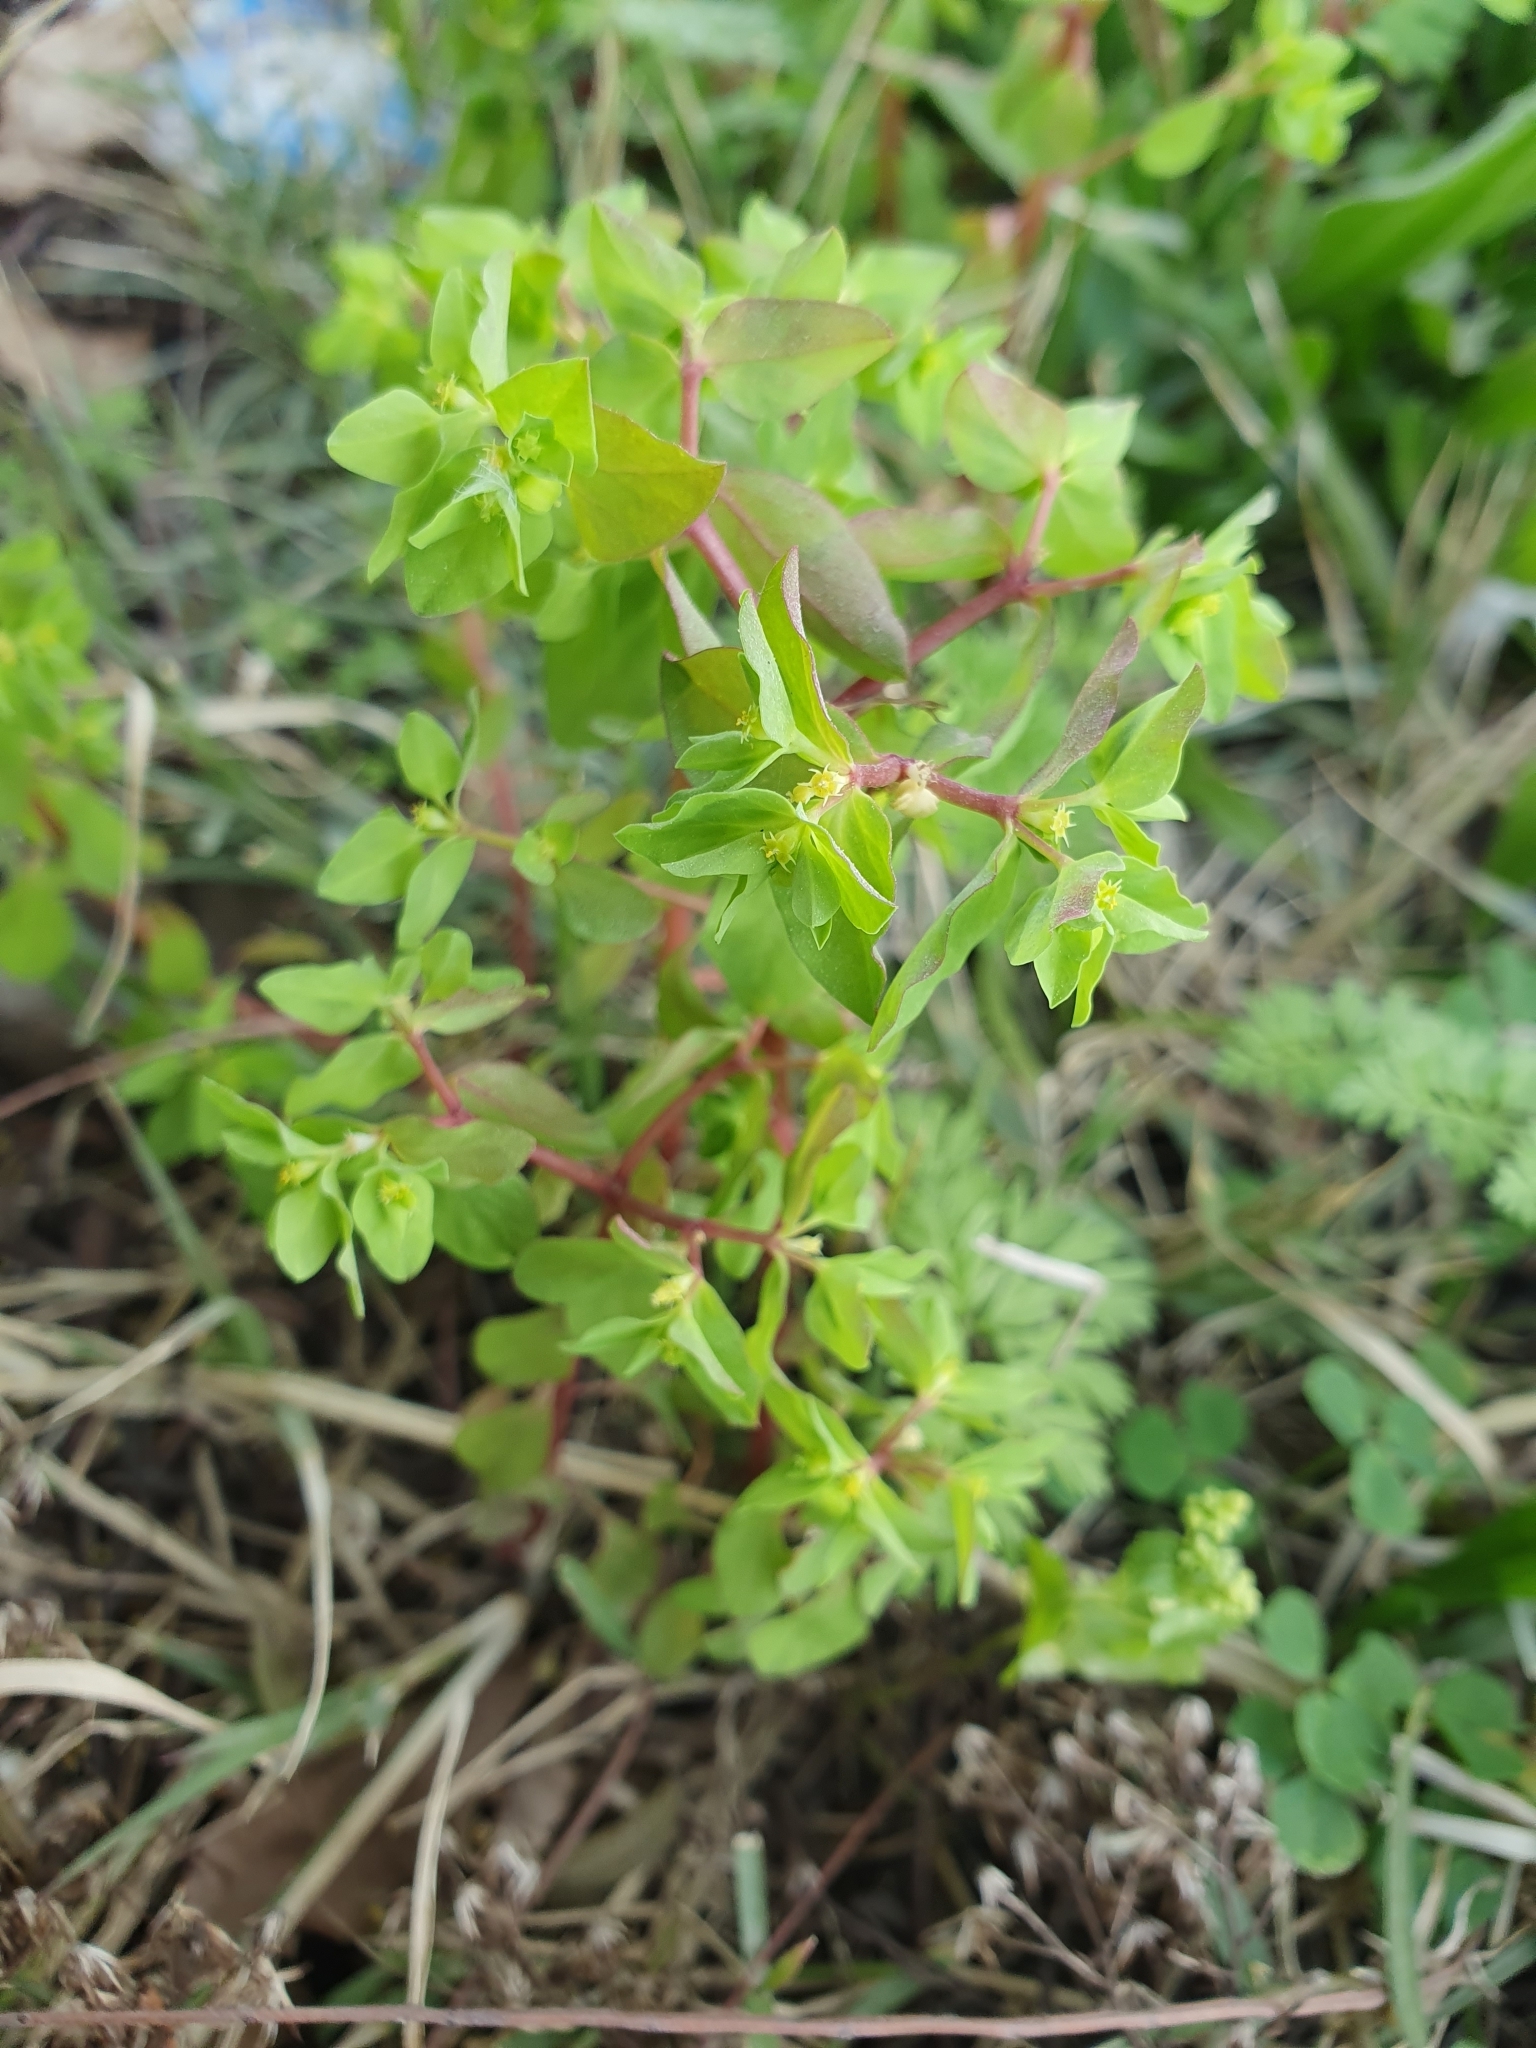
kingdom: Plantae
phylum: Tracheophyta
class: Magnoliopsida
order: Malpighiales
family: Euphorbiaceae
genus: Euphorbia
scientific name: Euphorbia peplus
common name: Petty spurge
